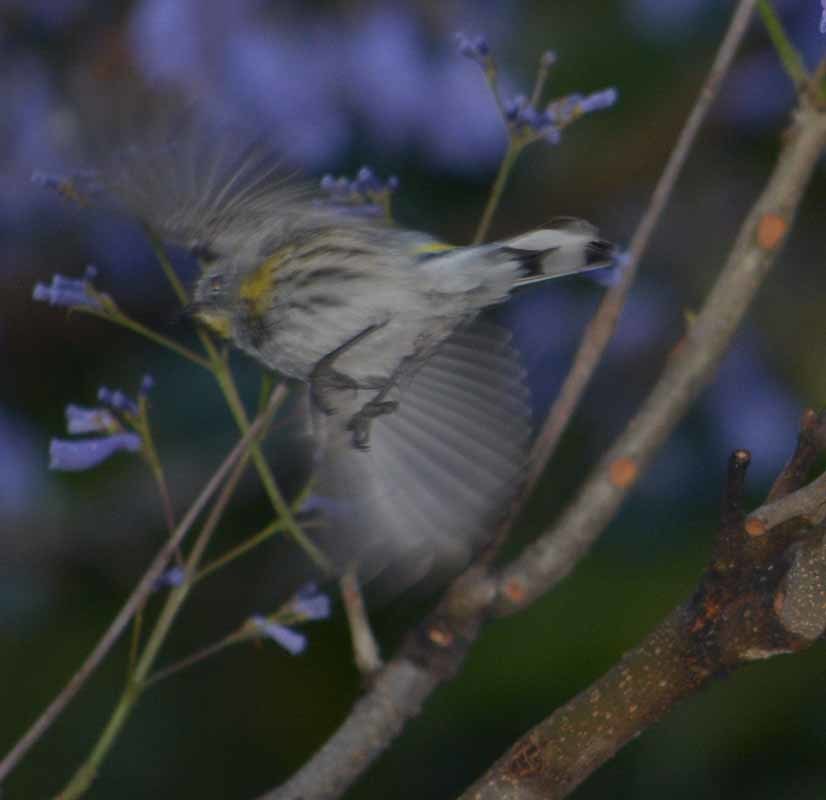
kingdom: Animalia
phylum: Chordata
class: Aves
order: Passeriformes
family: Parulidae
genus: Setophaga
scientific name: Setophaga coronata
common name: Myrtle warbler
